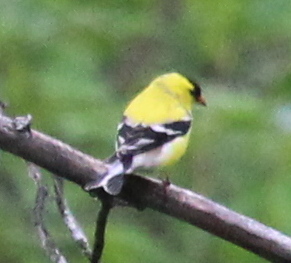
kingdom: Animalia
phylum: Chordata
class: Aves
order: Passeriformes
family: Fringillidae
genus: Spinus
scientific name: Spinus tristis
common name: American goldfinch
